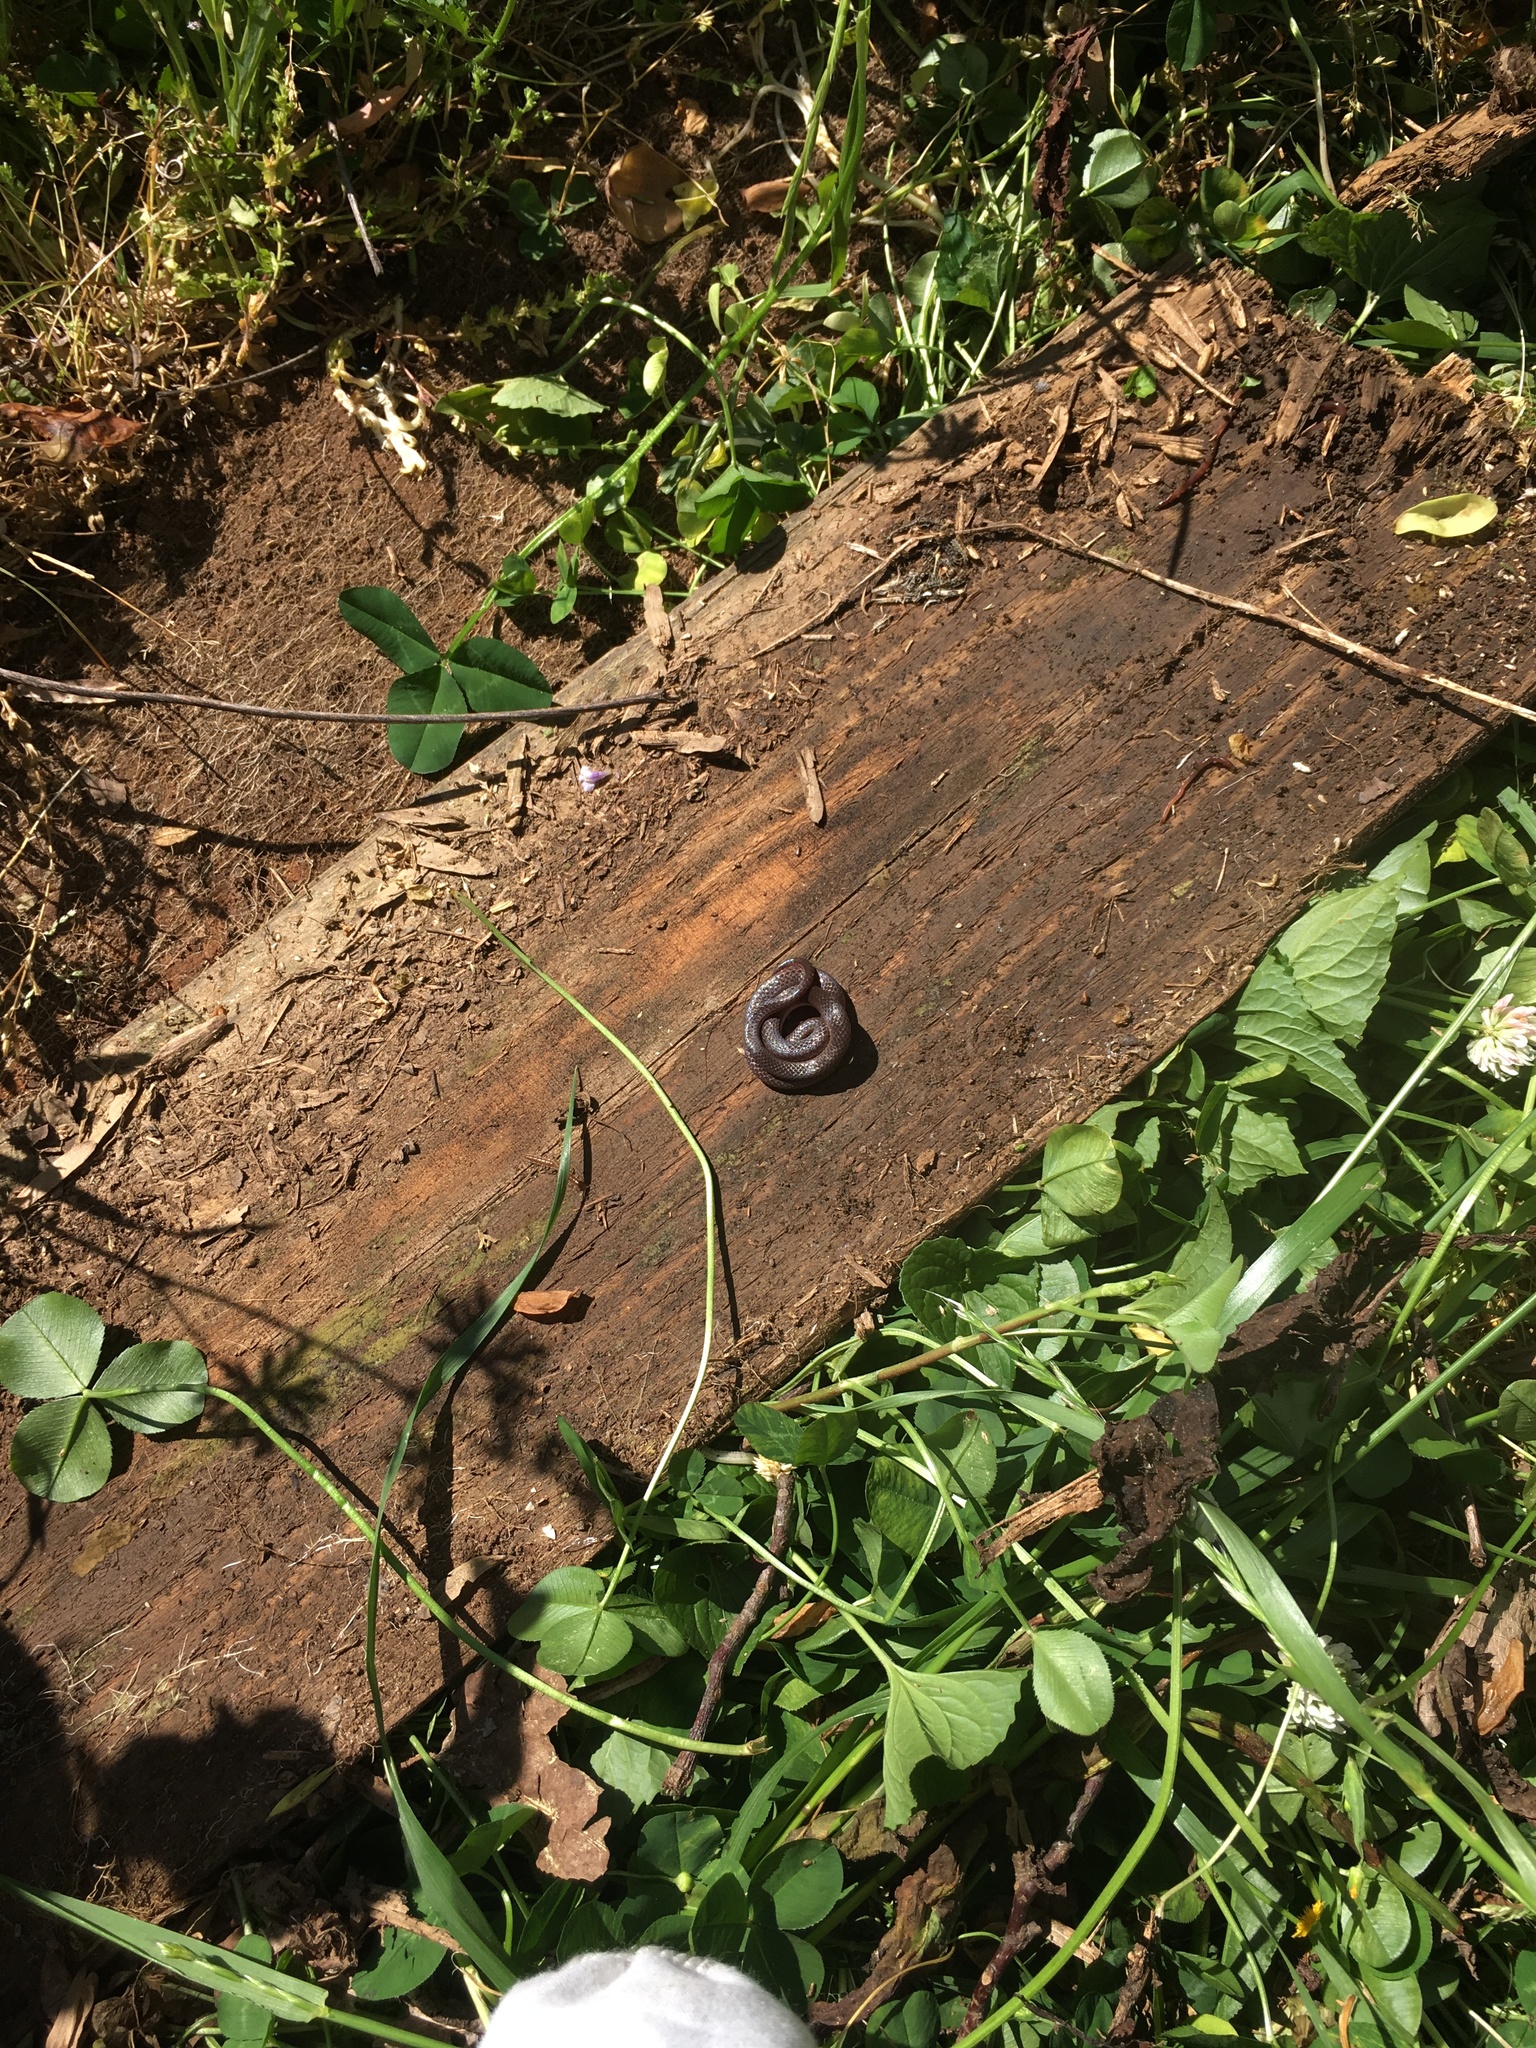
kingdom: Animalia
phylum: Chordata
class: Squamata
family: Colubridae
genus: Carphophis
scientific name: Carphophis amoenus
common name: Eastern worm snake
